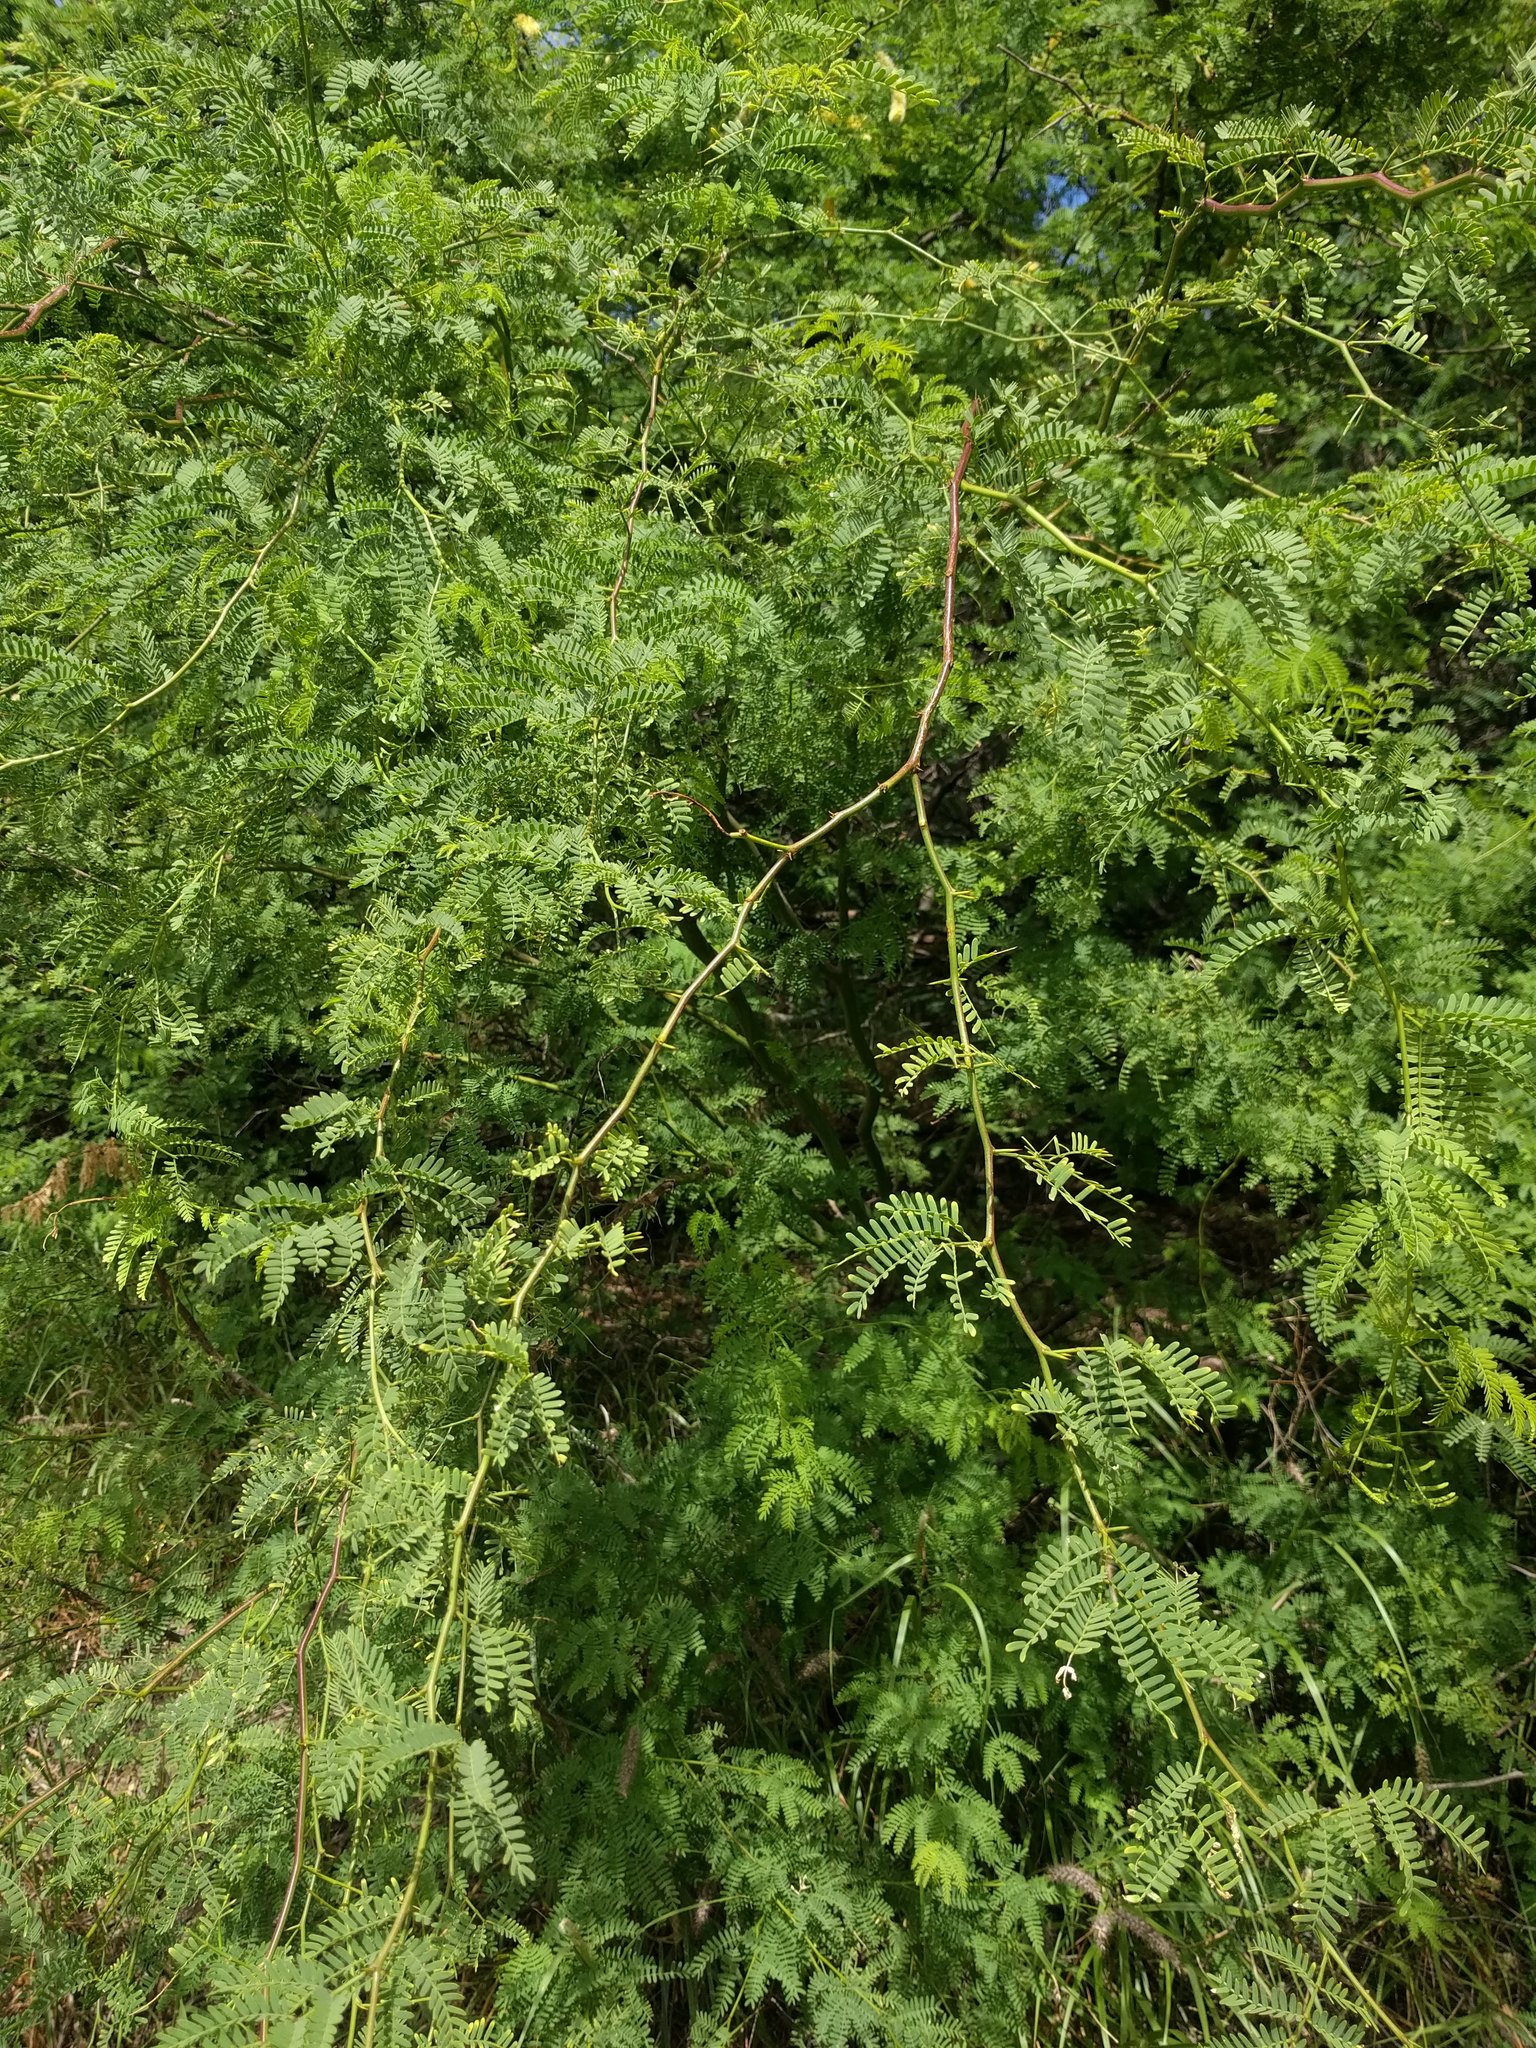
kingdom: Plantae
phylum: Tracheophyta
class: Magnoliopsida
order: Fabales
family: Fabaceae
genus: Prosopis
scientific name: Prosopis pallida
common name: Mesquite
